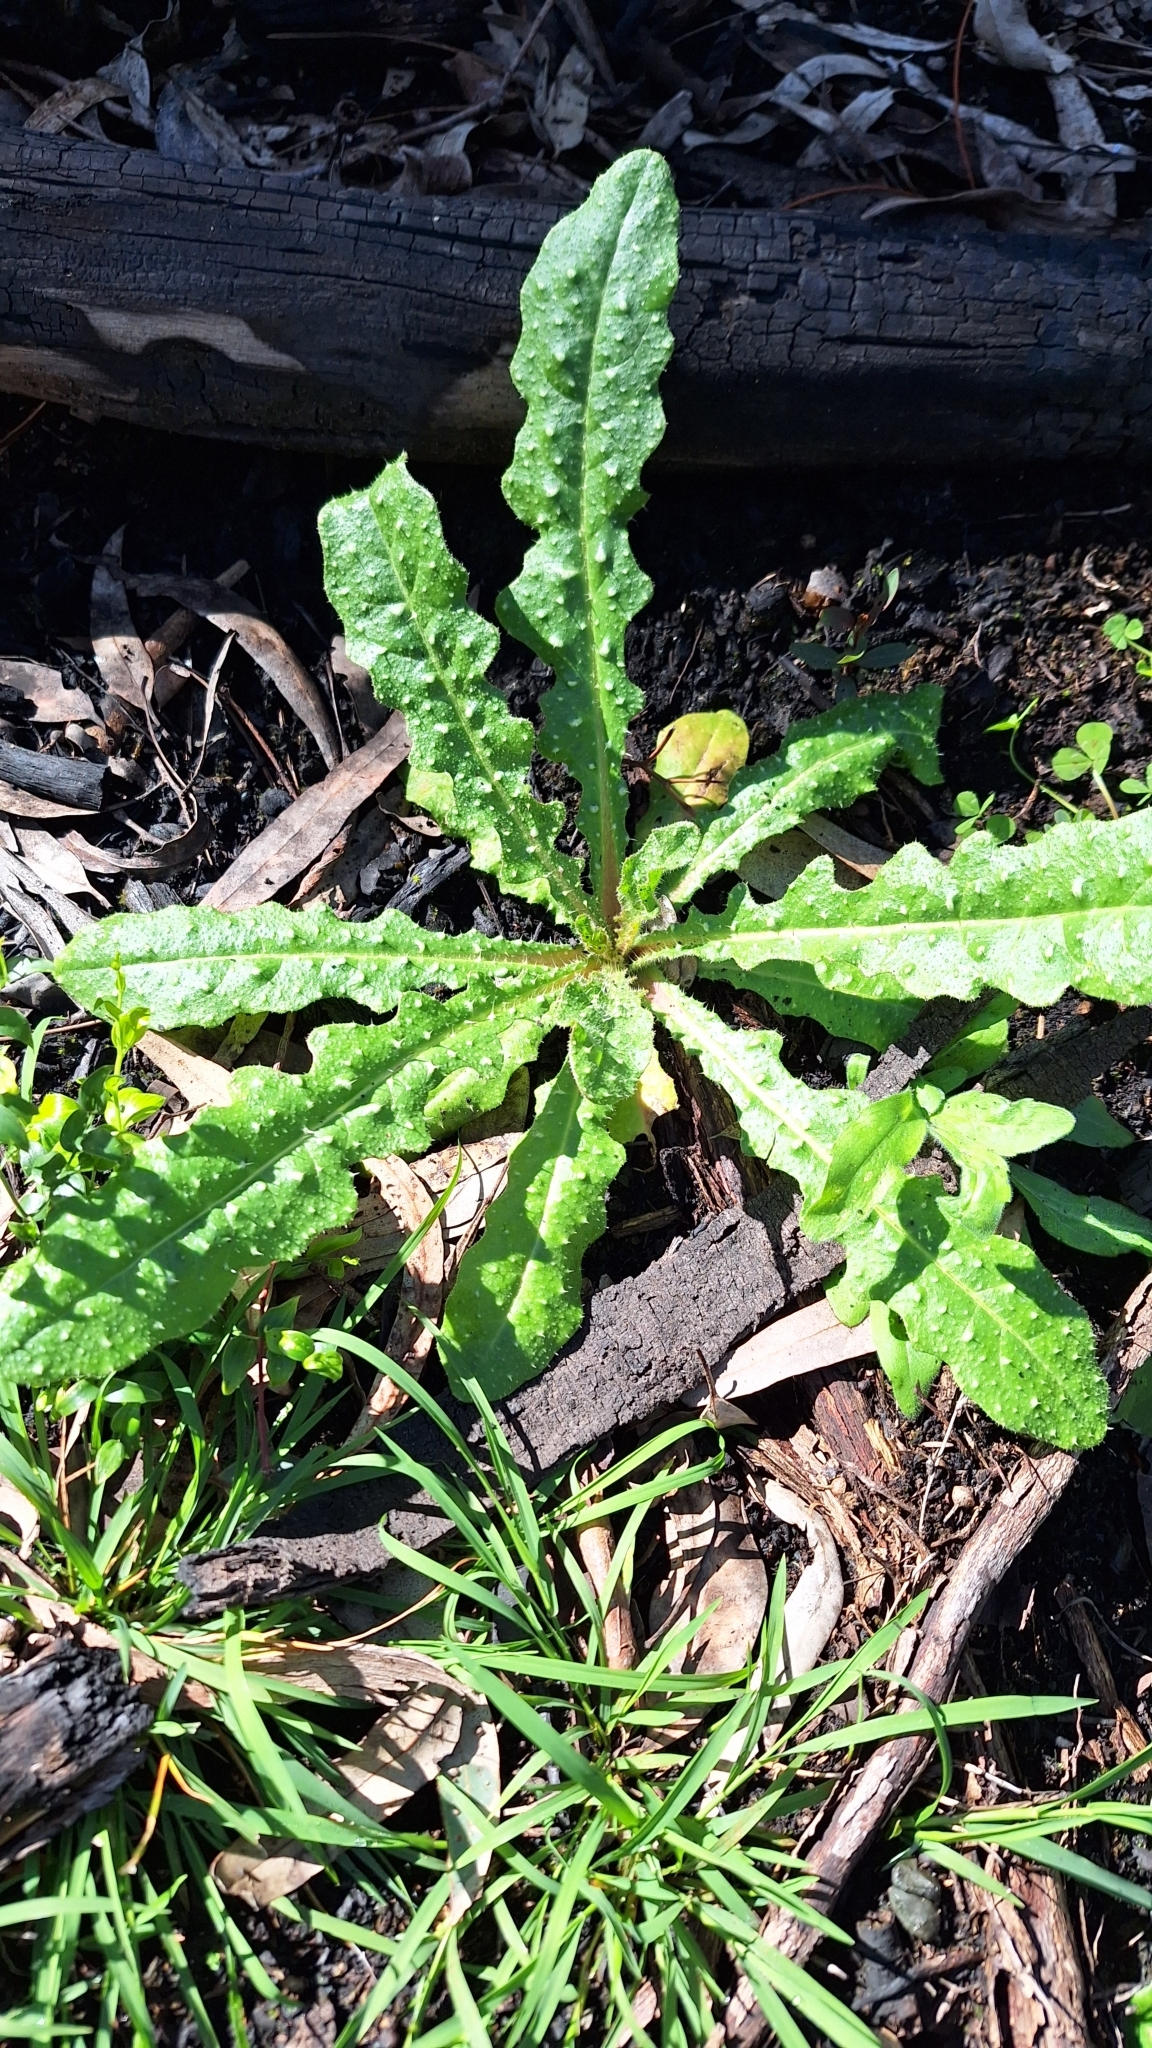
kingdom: Plantae
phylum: Tracheophyta
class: Magnoliopsida
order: Asterales
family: Asteraceae
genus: Helminthotheca
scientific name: Helminthotheca echioides
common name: Ox-tongue
